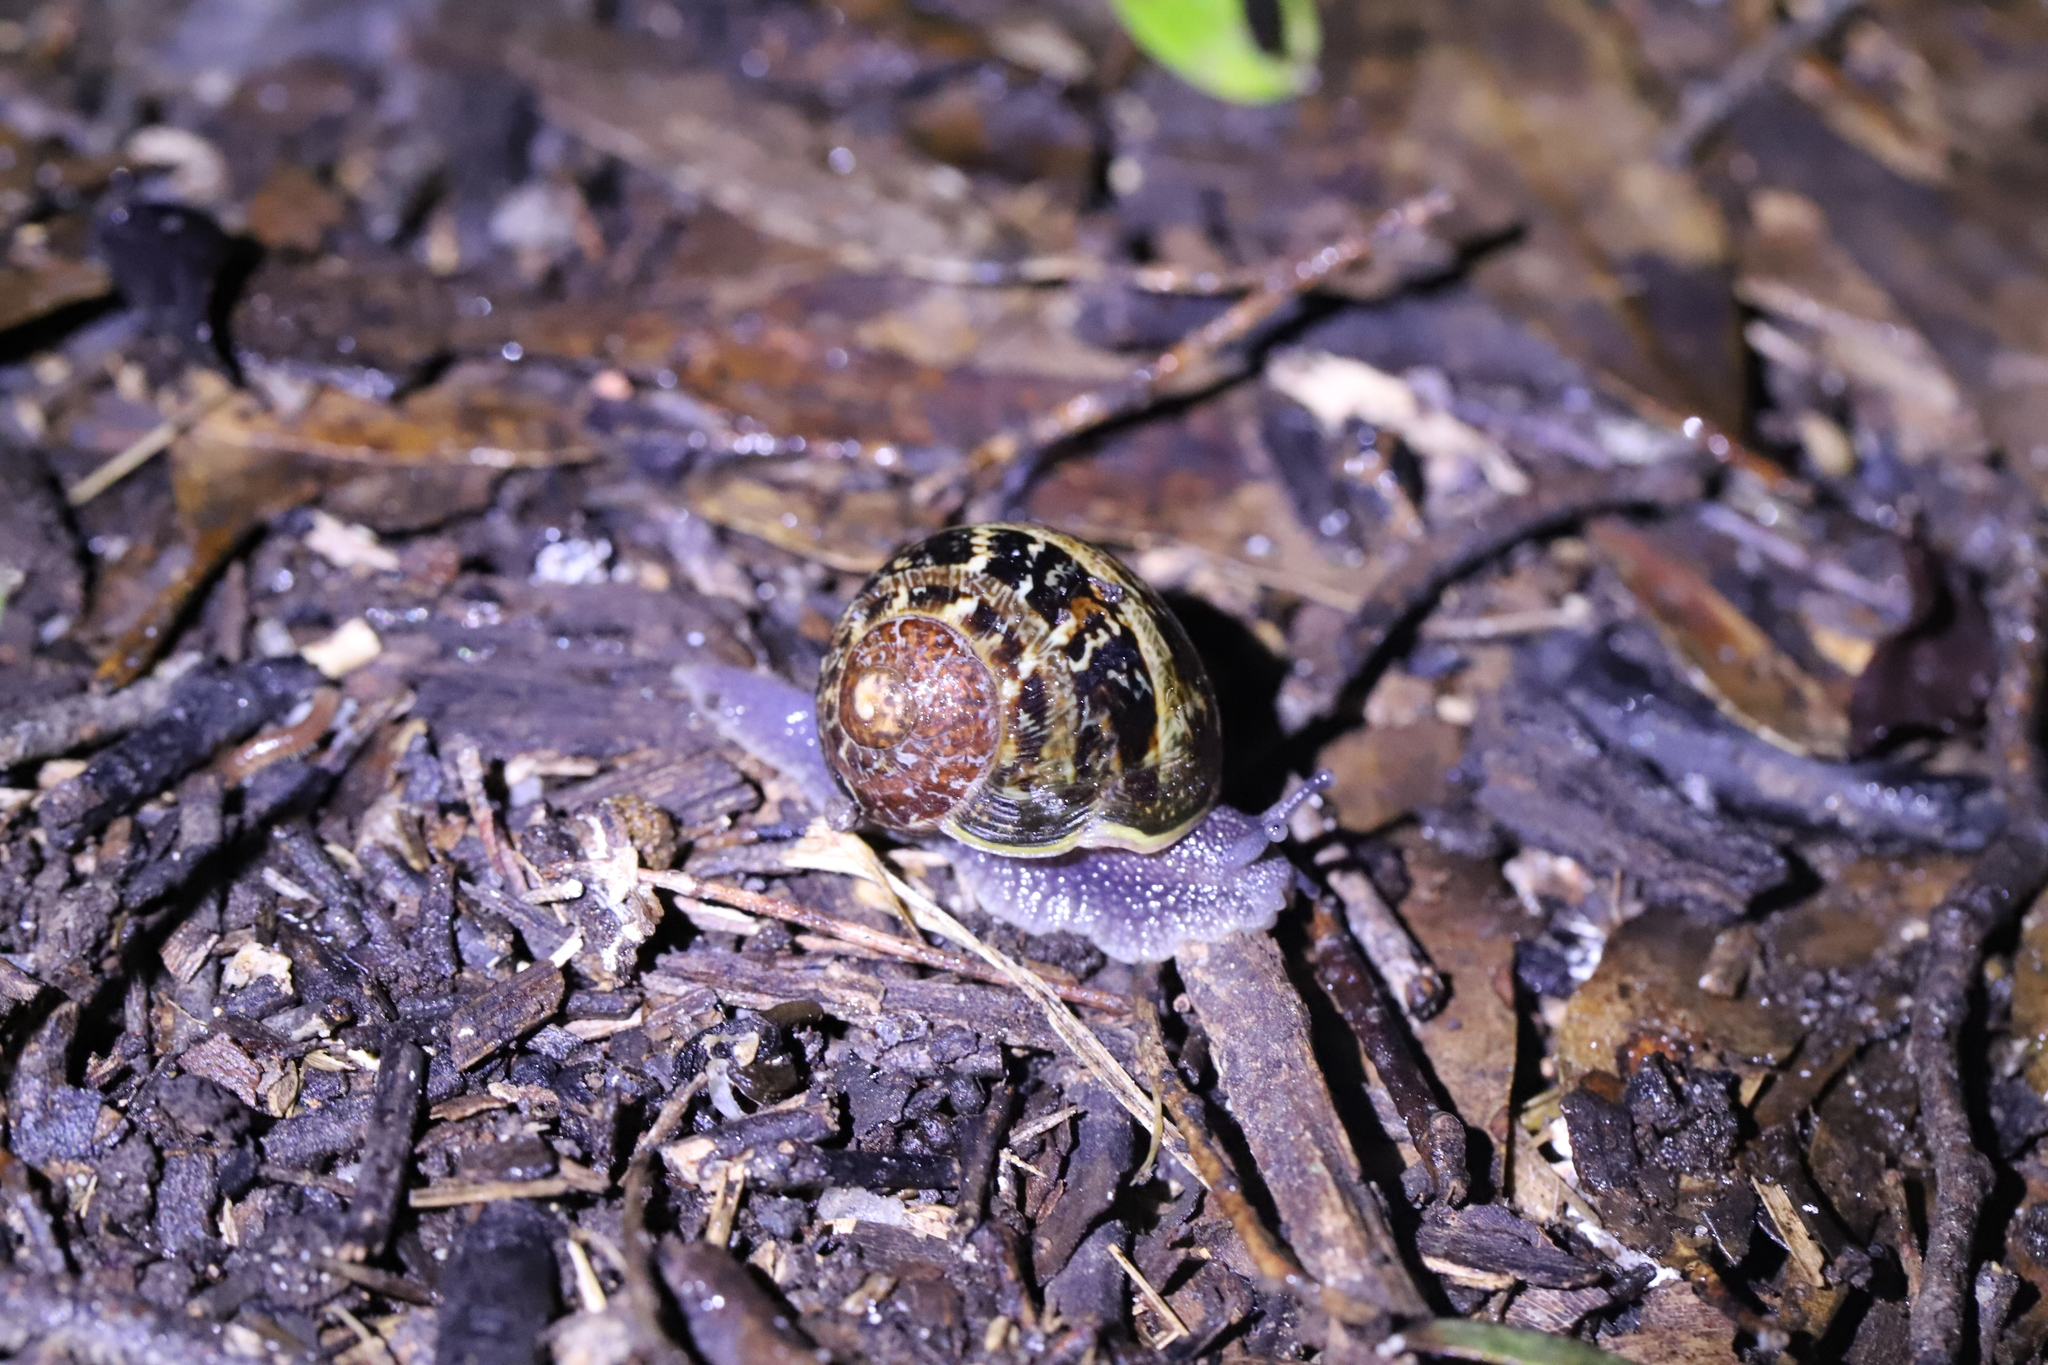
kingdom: Animalia
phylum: Mollusca
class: Gastropoda
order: Stylommatophora
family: Helicidae
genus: Cornu
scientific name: Cornu aspersum
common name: Brown garden snail
